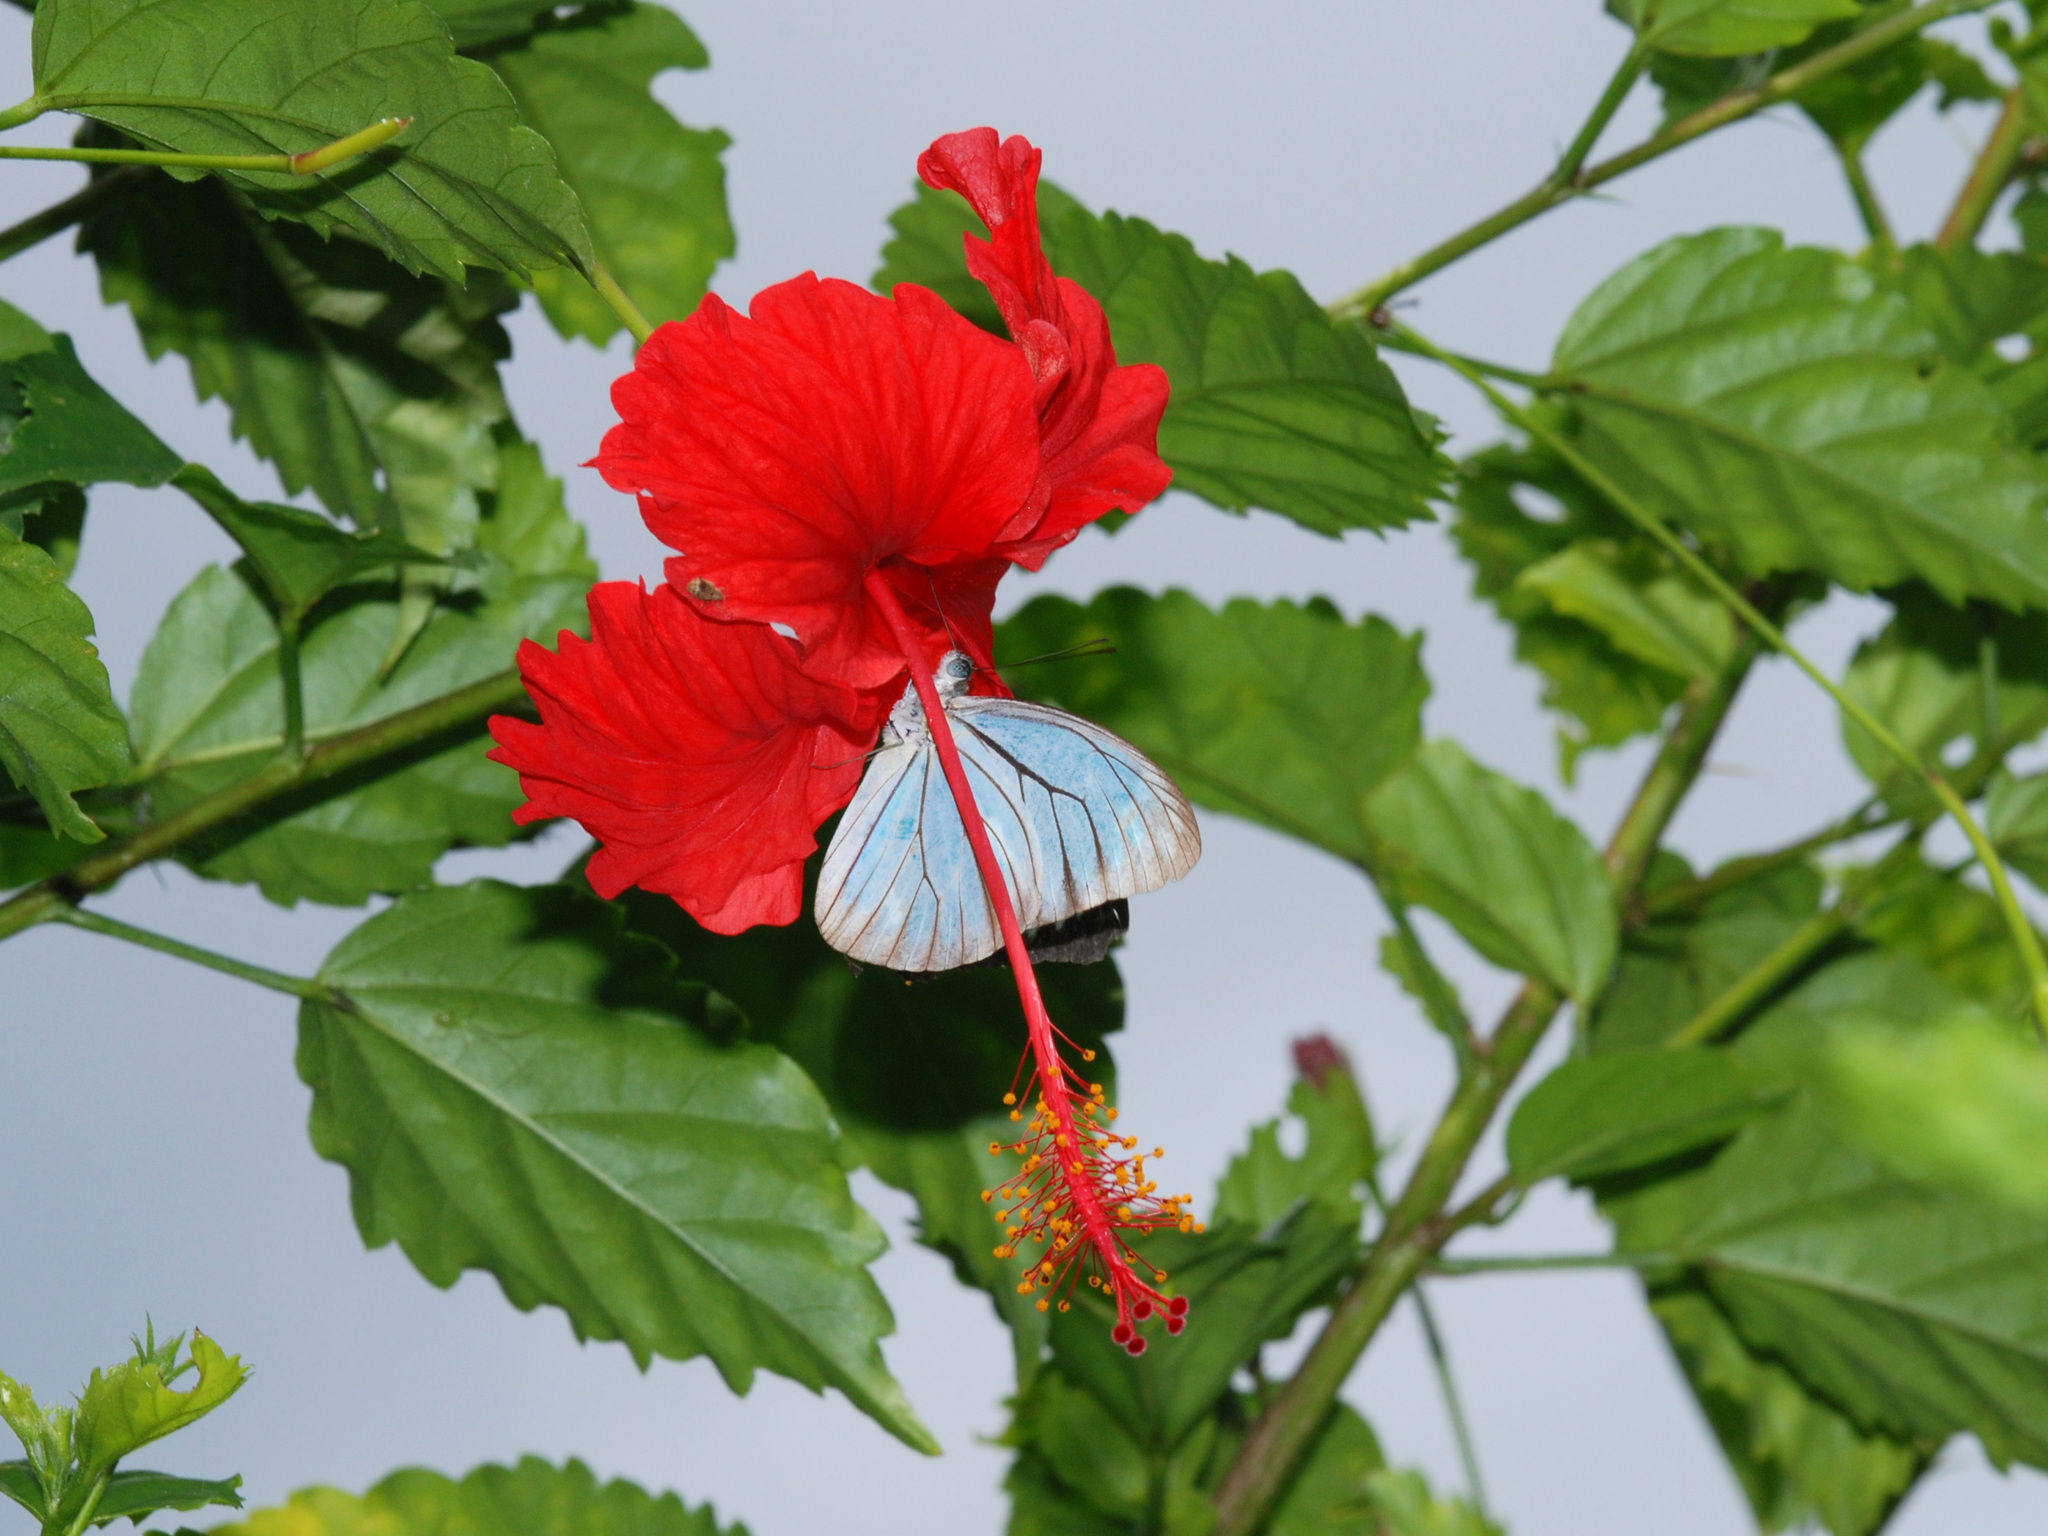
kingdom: Animalia
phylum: Arthropoda
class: Insecta
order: Lepidoptera
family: Pieridae
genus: Pareronia
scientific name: Pareronia valeria
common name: Common wanderer?
